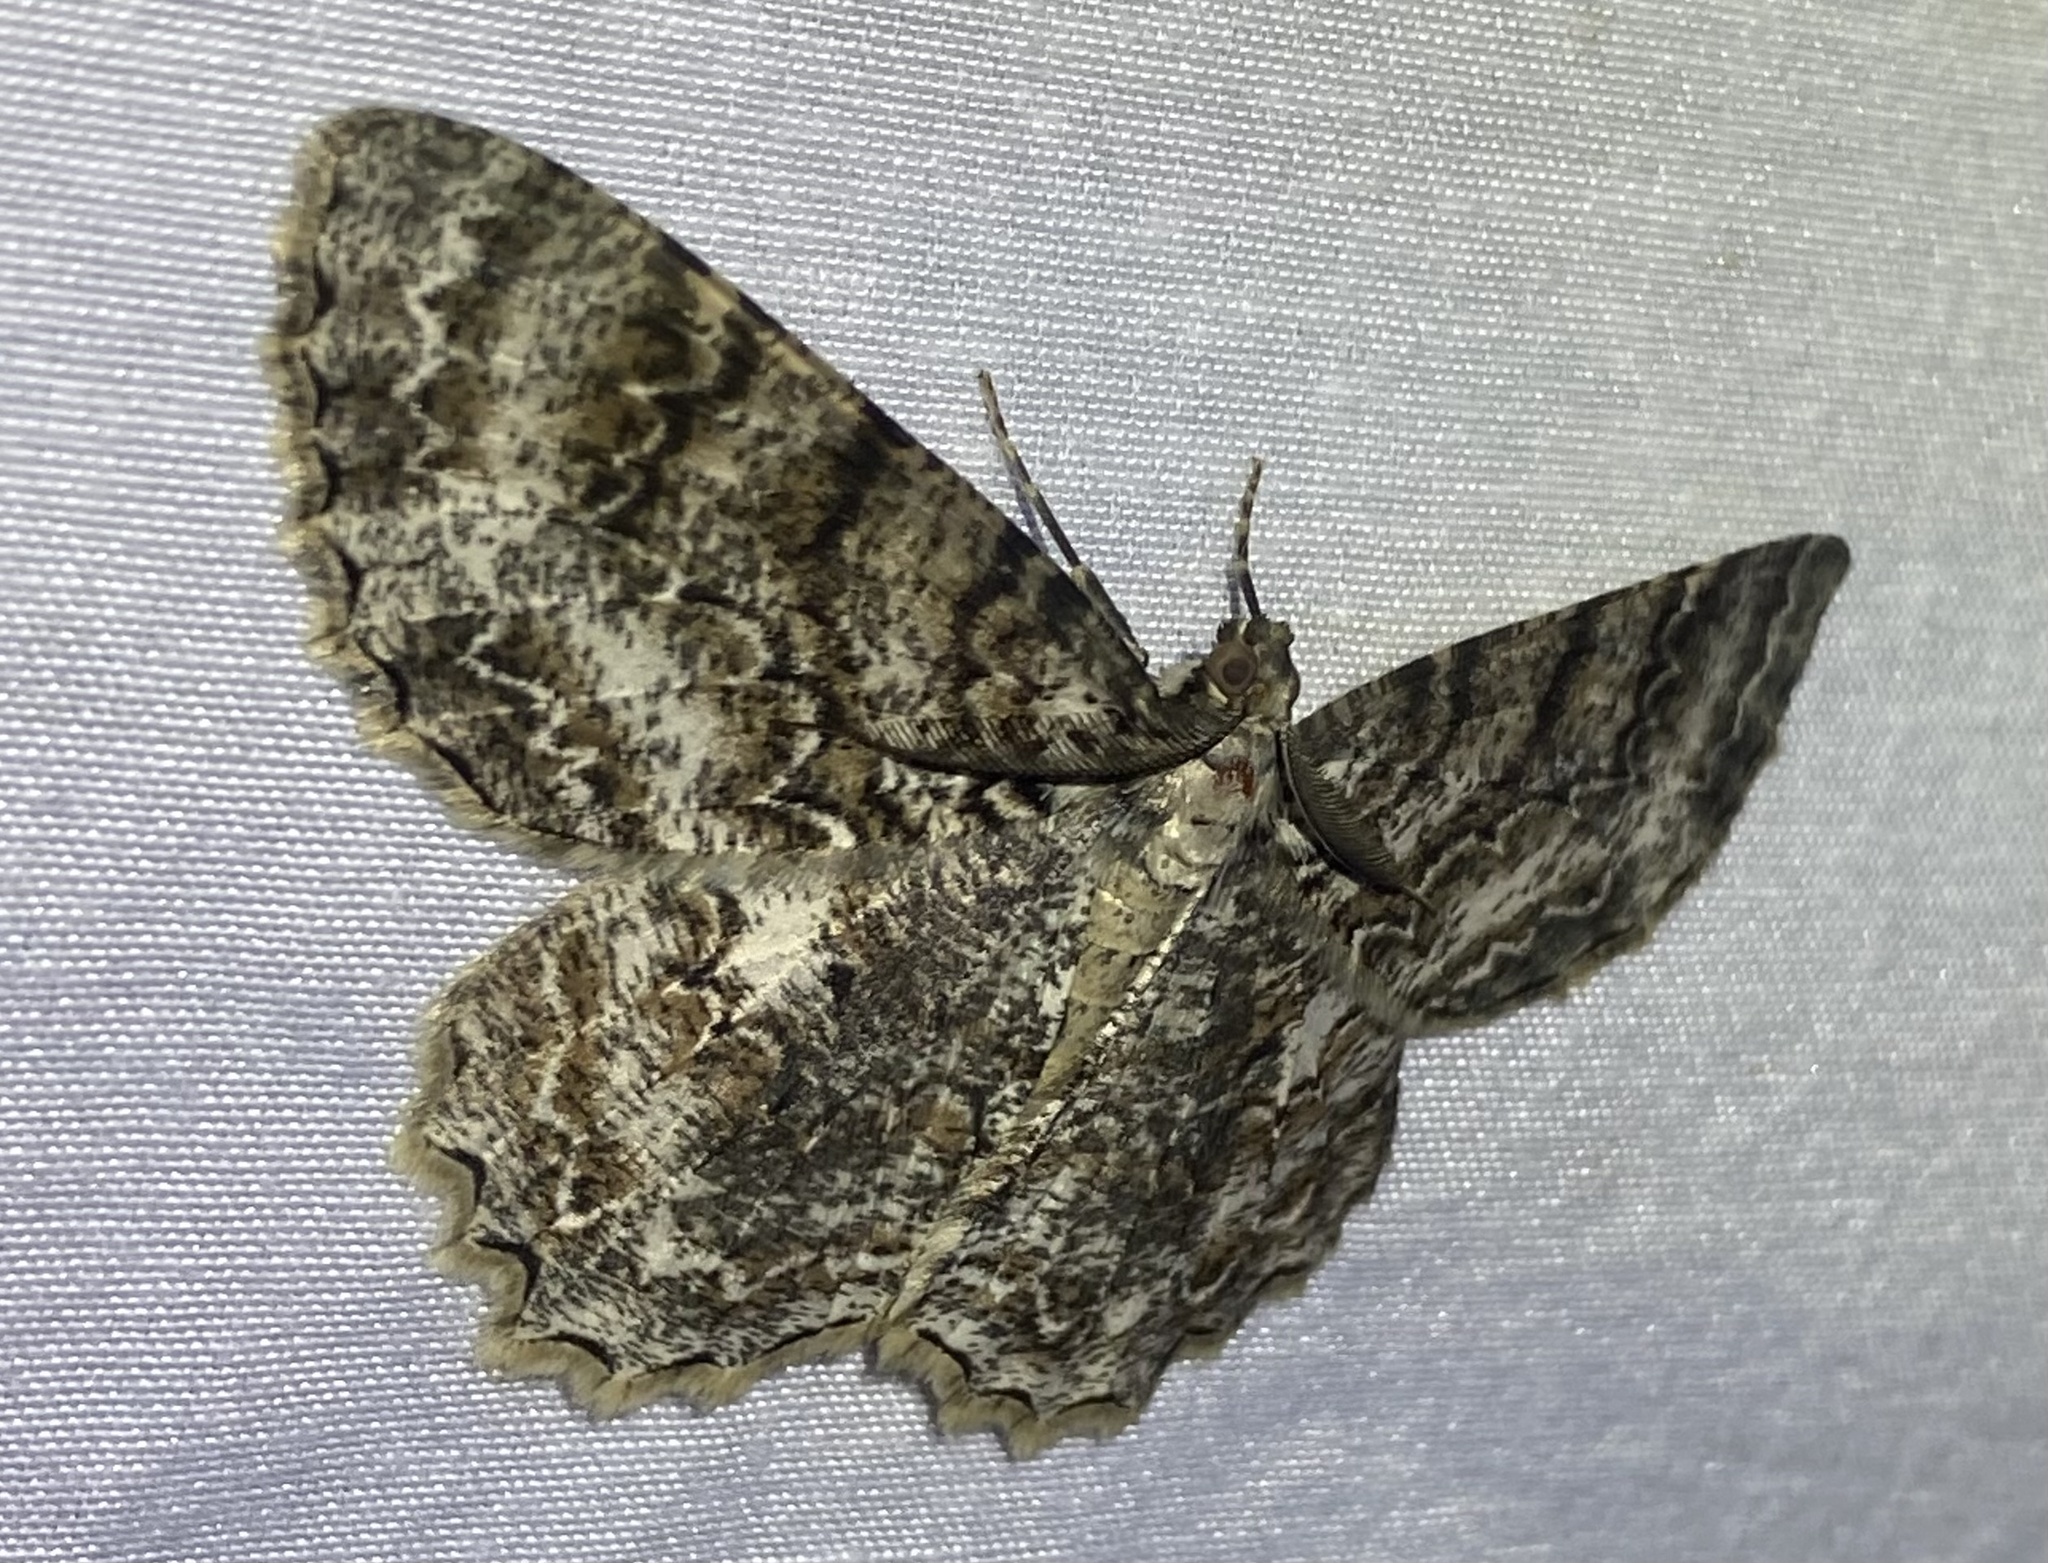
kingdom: Animalia
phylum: Arthropoda
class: Insecta
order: Lepidoptera
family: Geometridae
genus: Epimecis
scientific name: Epimecis hortaria
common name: Tulip-tree beauty
